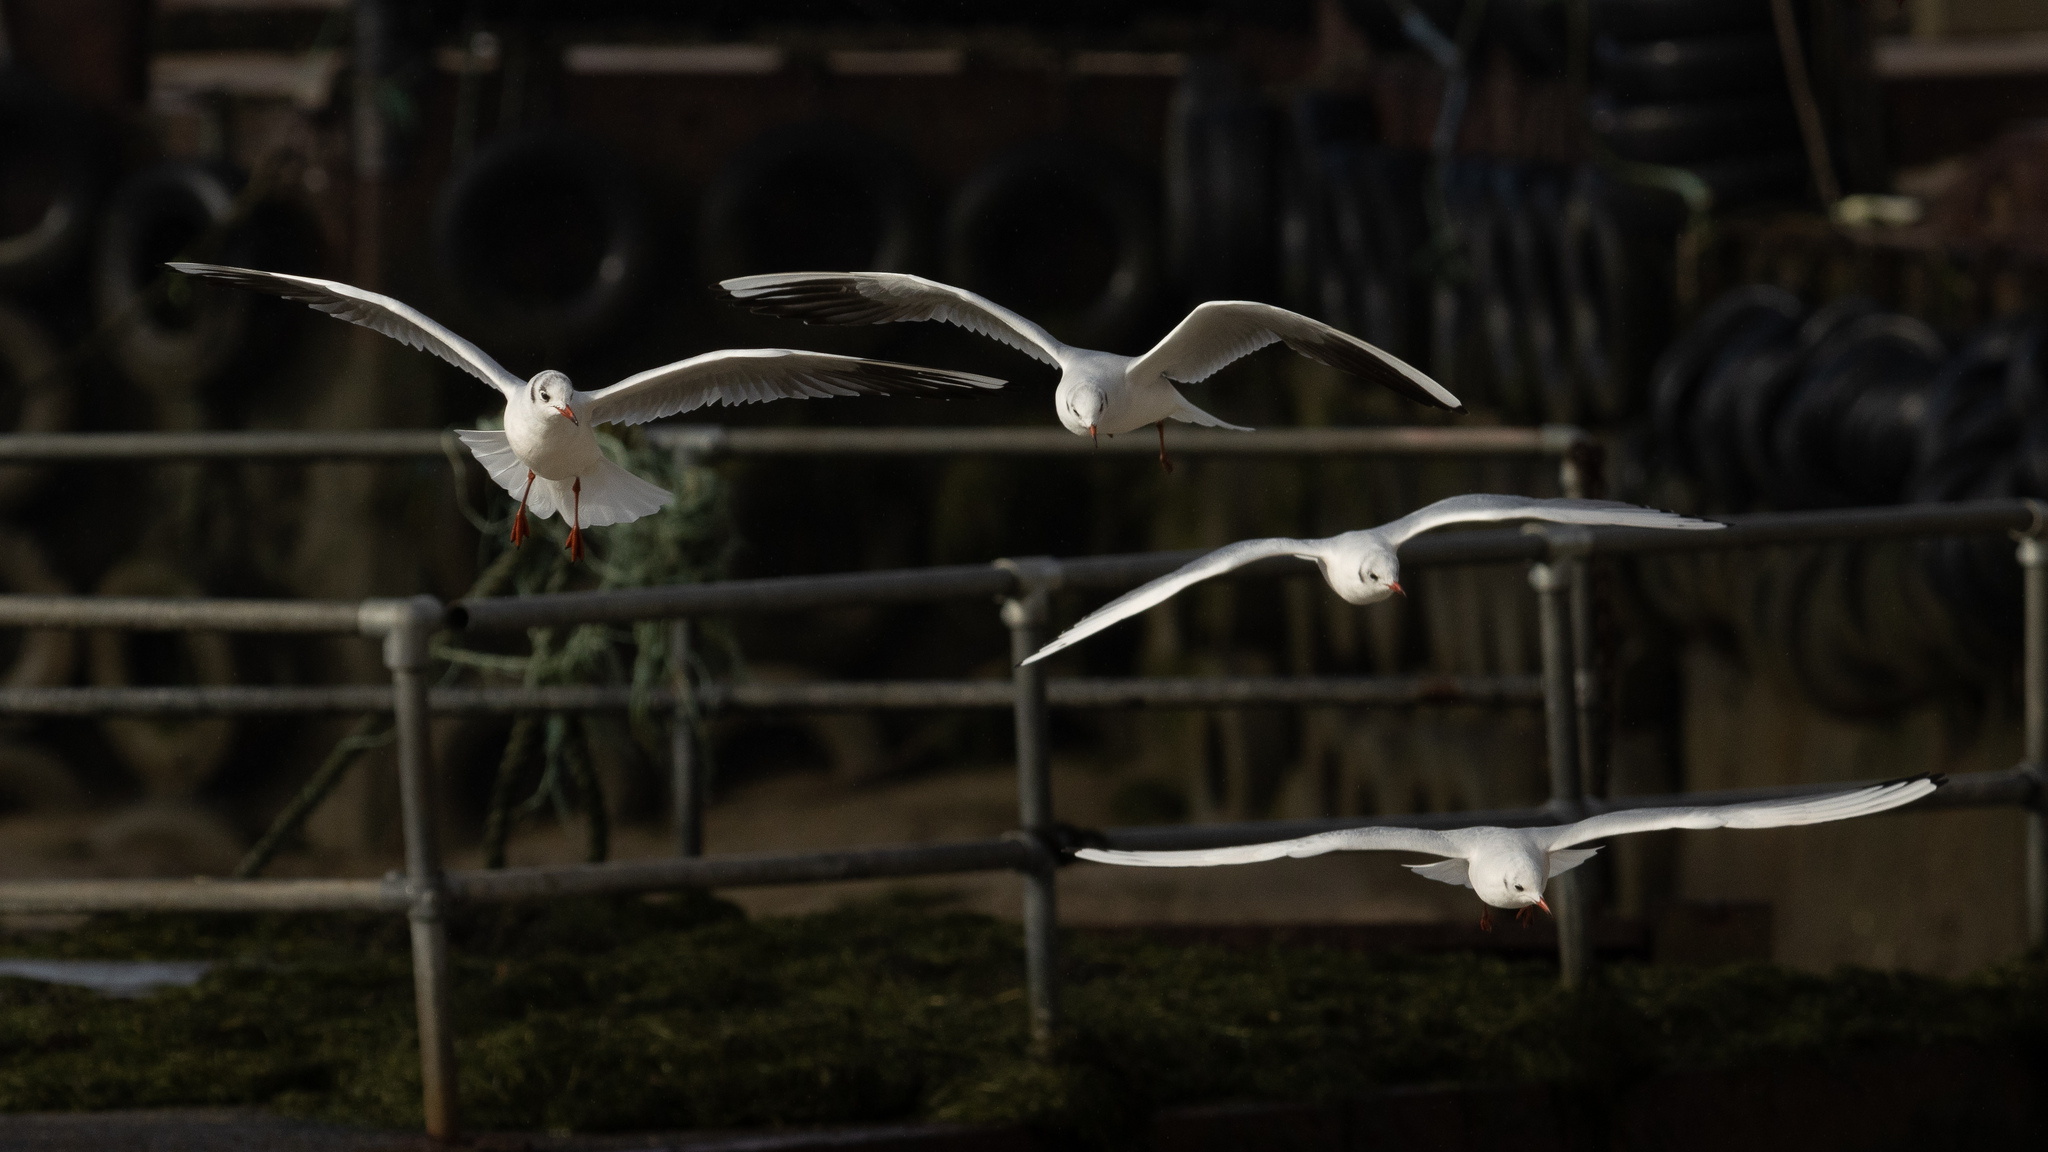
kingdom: Animalia
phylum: Chordata
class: Aves
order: Charadriiformes
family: Laridae
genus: Chroicocephalus
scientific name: Chroicocephalus ridibundus
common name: Black-headed gull
